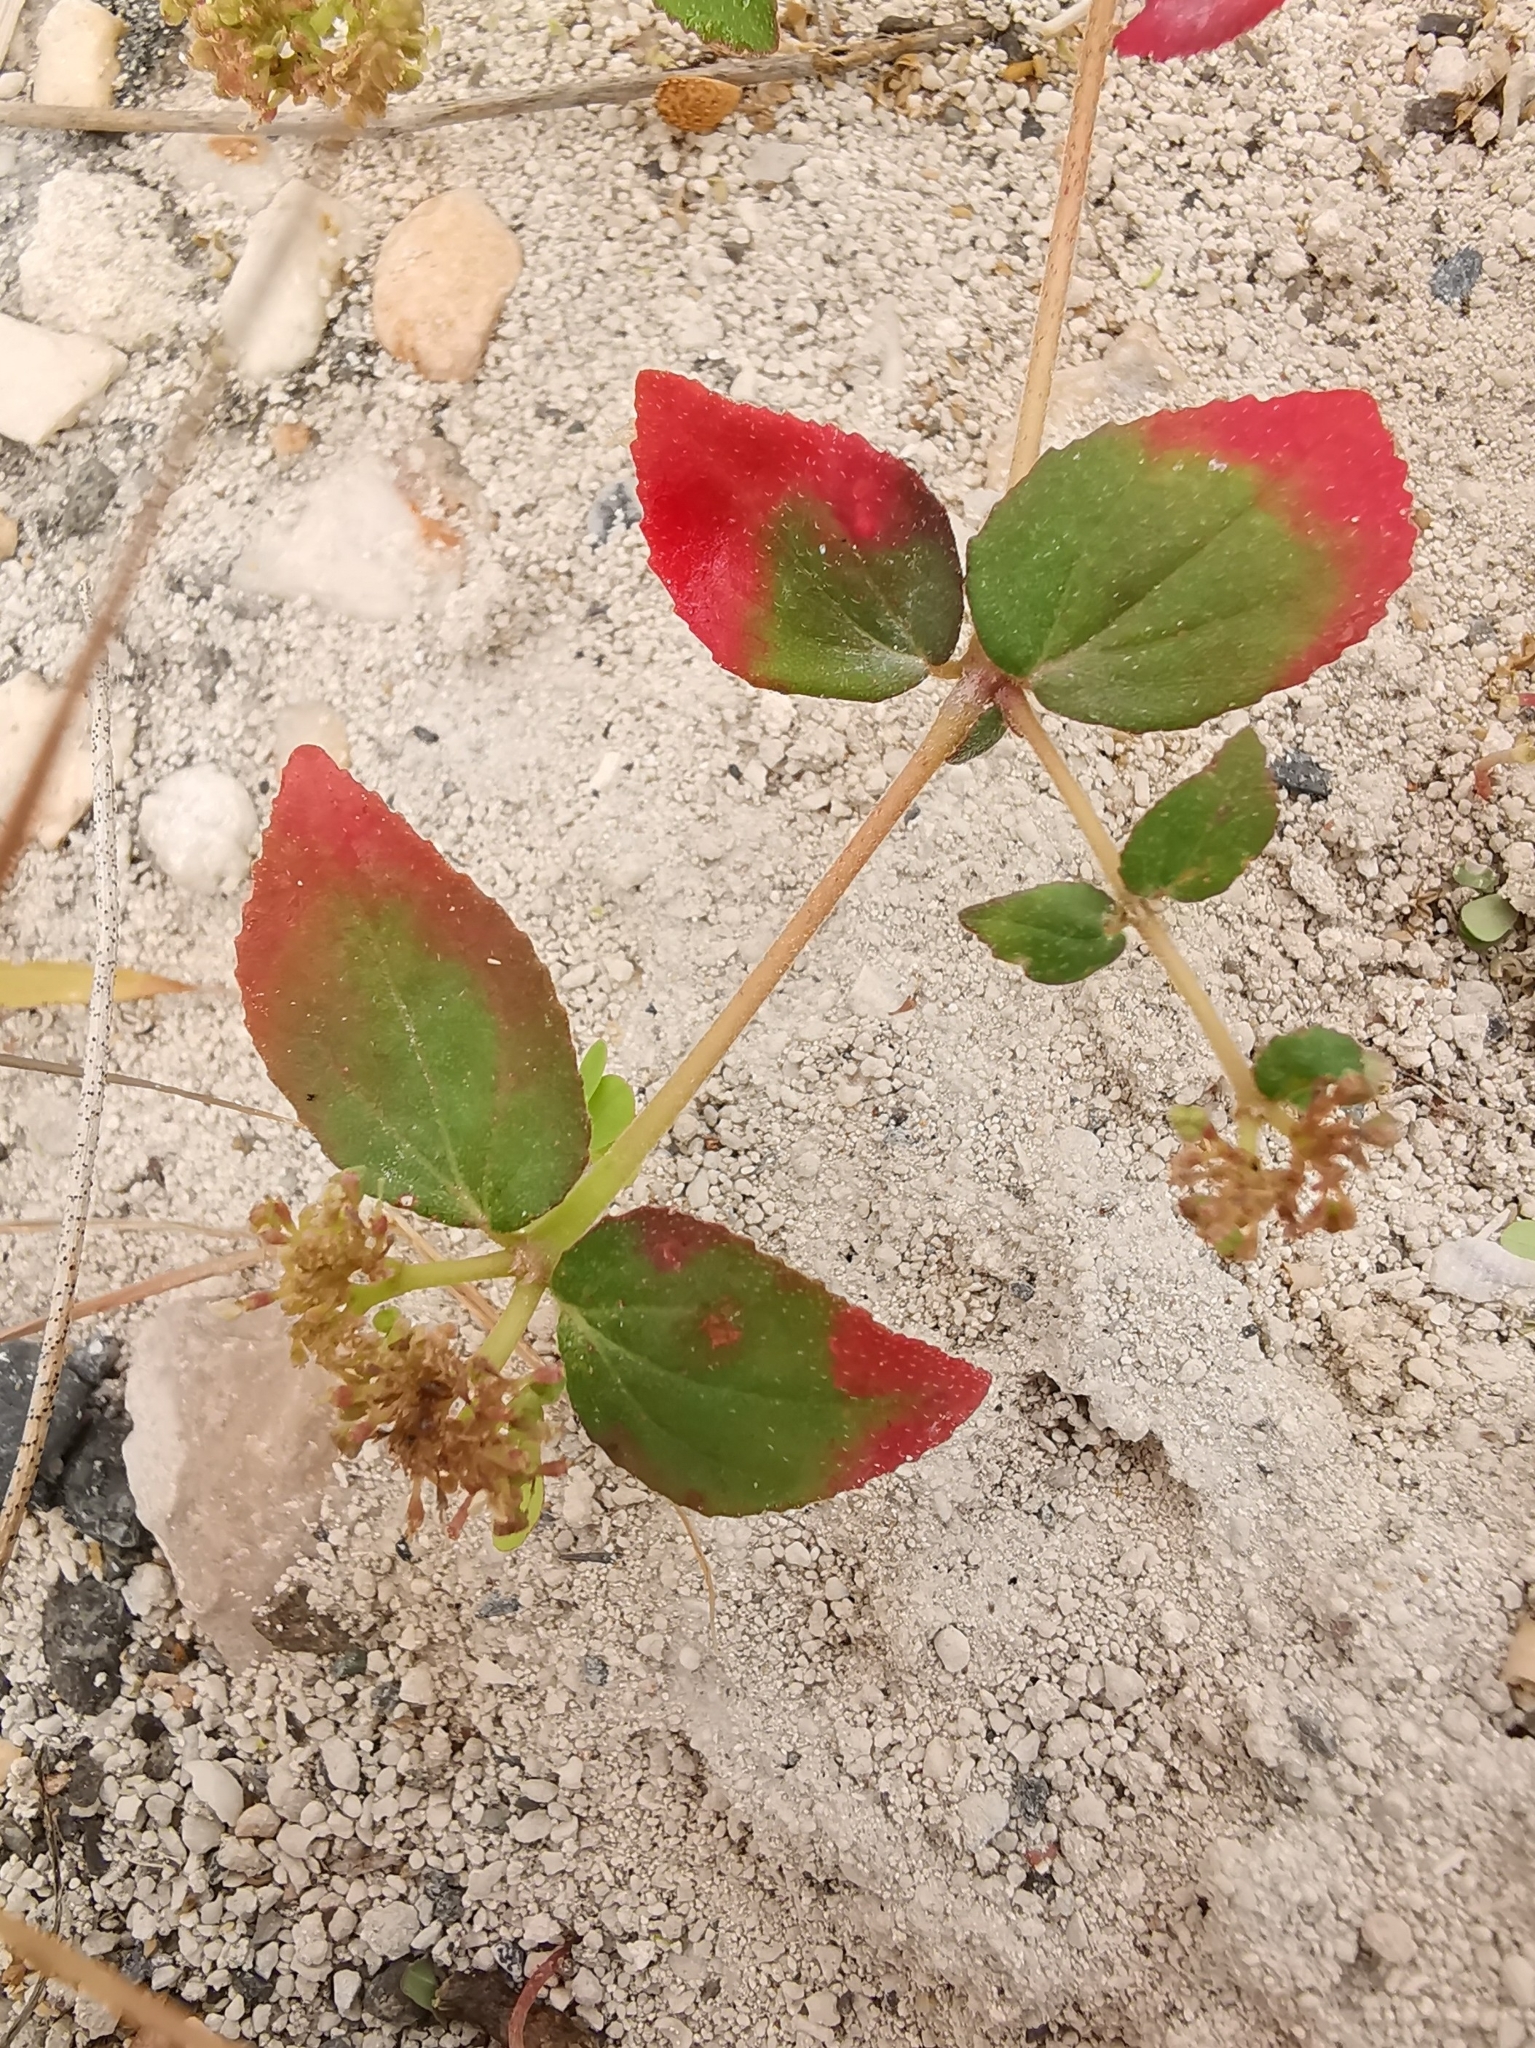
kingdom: Plantae
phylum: Tracheophyta
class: Magnoliopsida
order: Malpighiales
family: Euphorbiaceae
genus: Euphorbia
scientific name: Euphorbia ophthalmica
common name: Florida hammock sandmat
